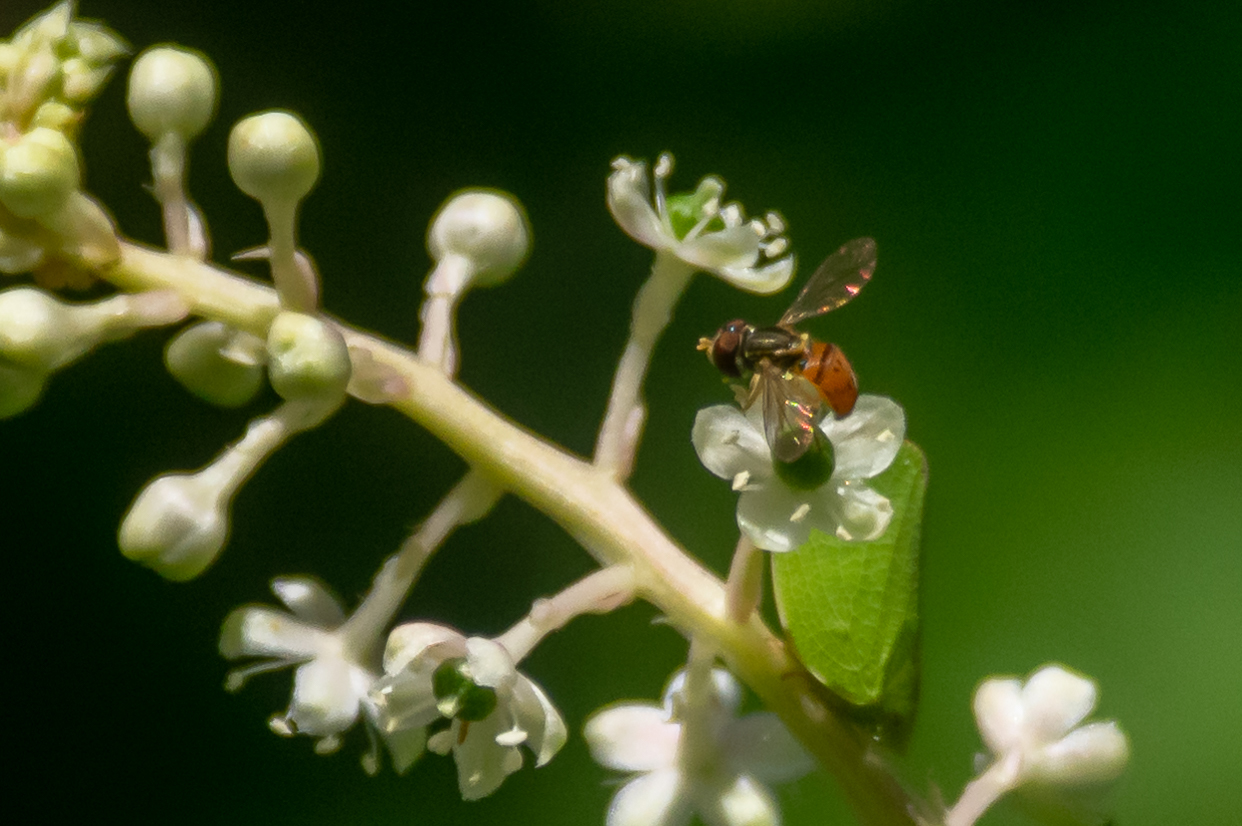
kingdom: Animalia
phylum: Arthropoda
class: Insecta
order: Diptera
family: Syrphidae
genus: Toxomerus
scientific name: Toxomerus
